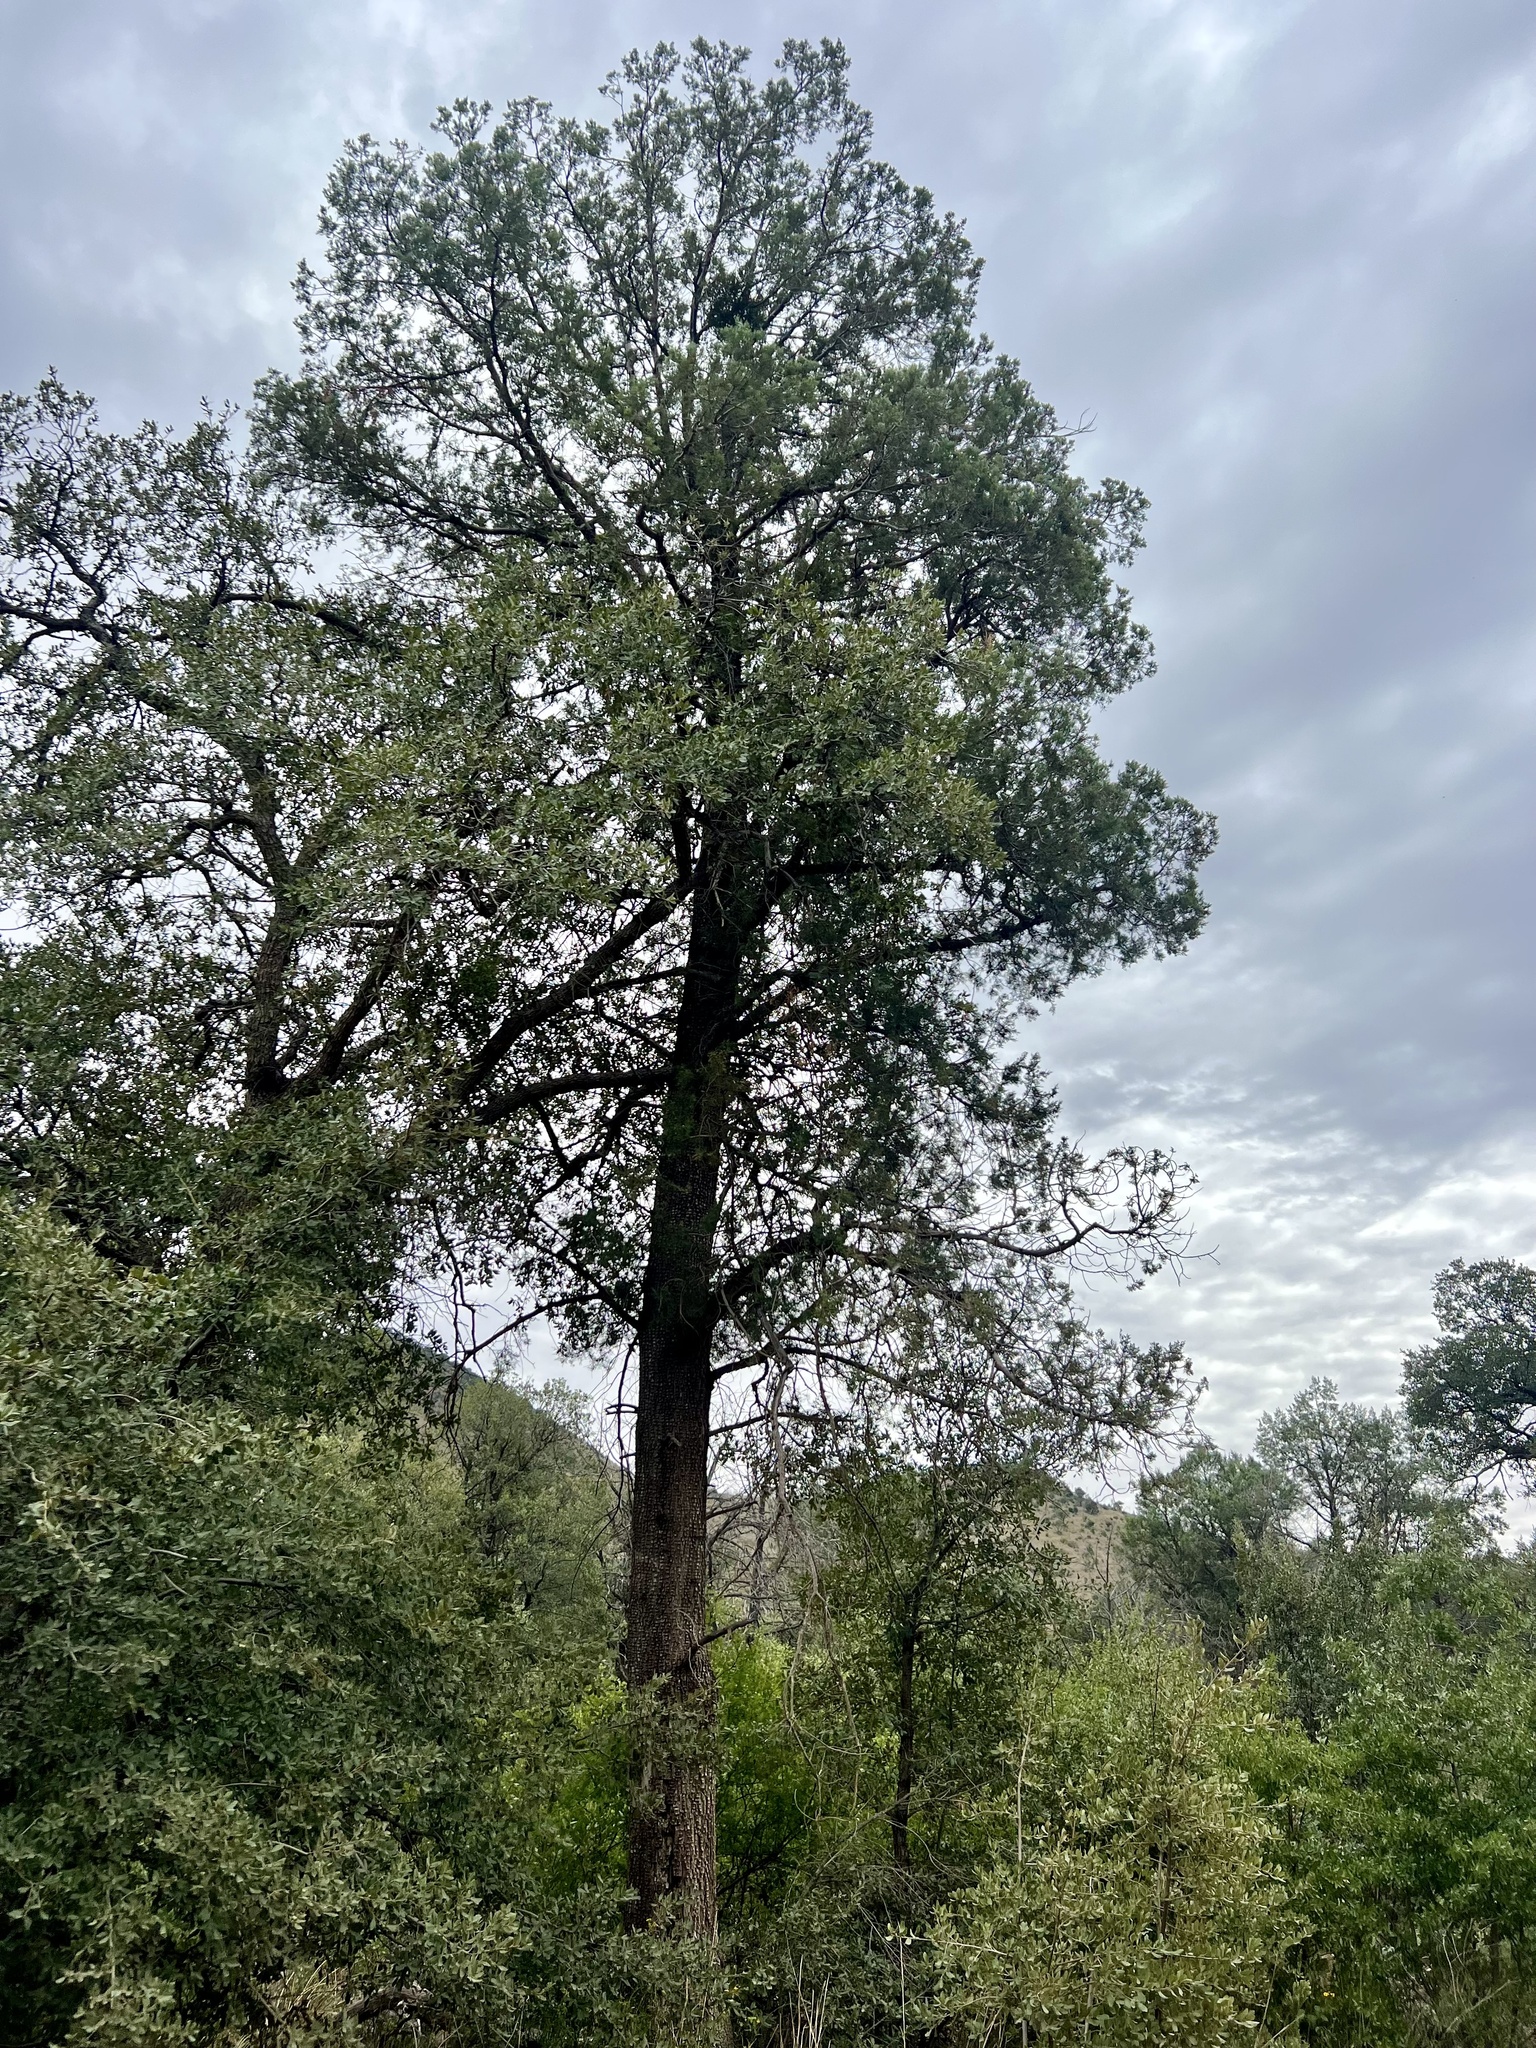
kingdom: Plantae
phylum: Tracheophyta
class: Pinopsida
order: Pinales
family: Cupressaceae
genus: Juniperus
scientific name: Juniperus deppeana
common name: Alligator juniper
